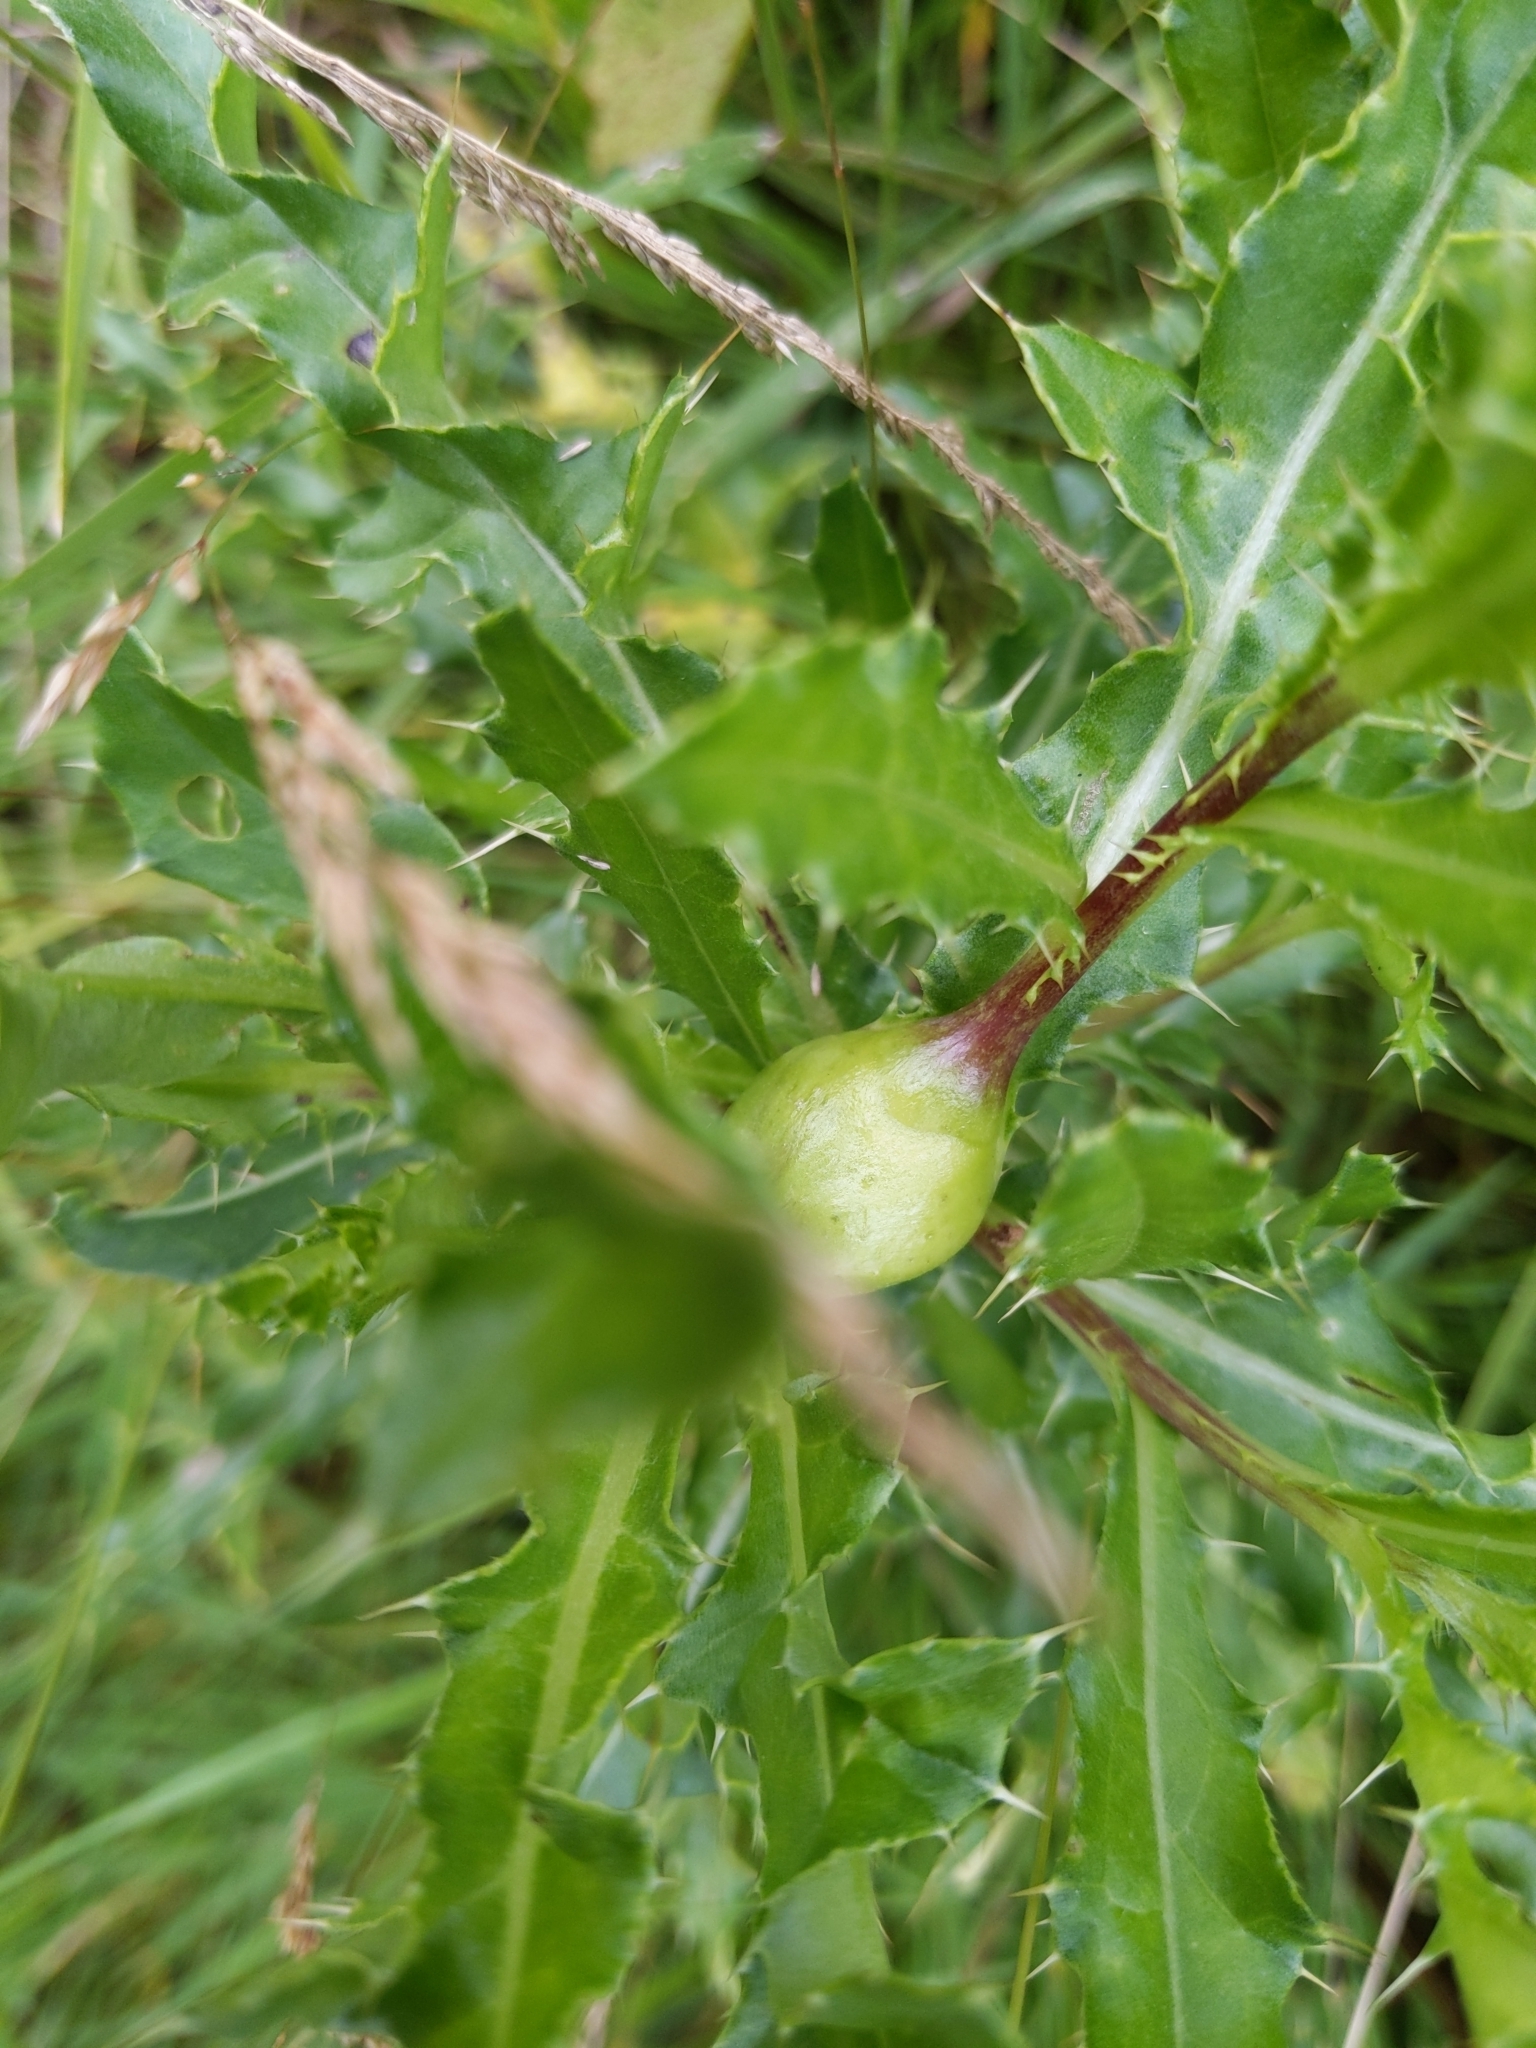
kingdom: Animalia
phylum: Arthropoda
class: Insecta
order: Diptera
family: Tephritidae
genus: Urophora
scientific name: Urophora cardui
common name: Fruit fly
